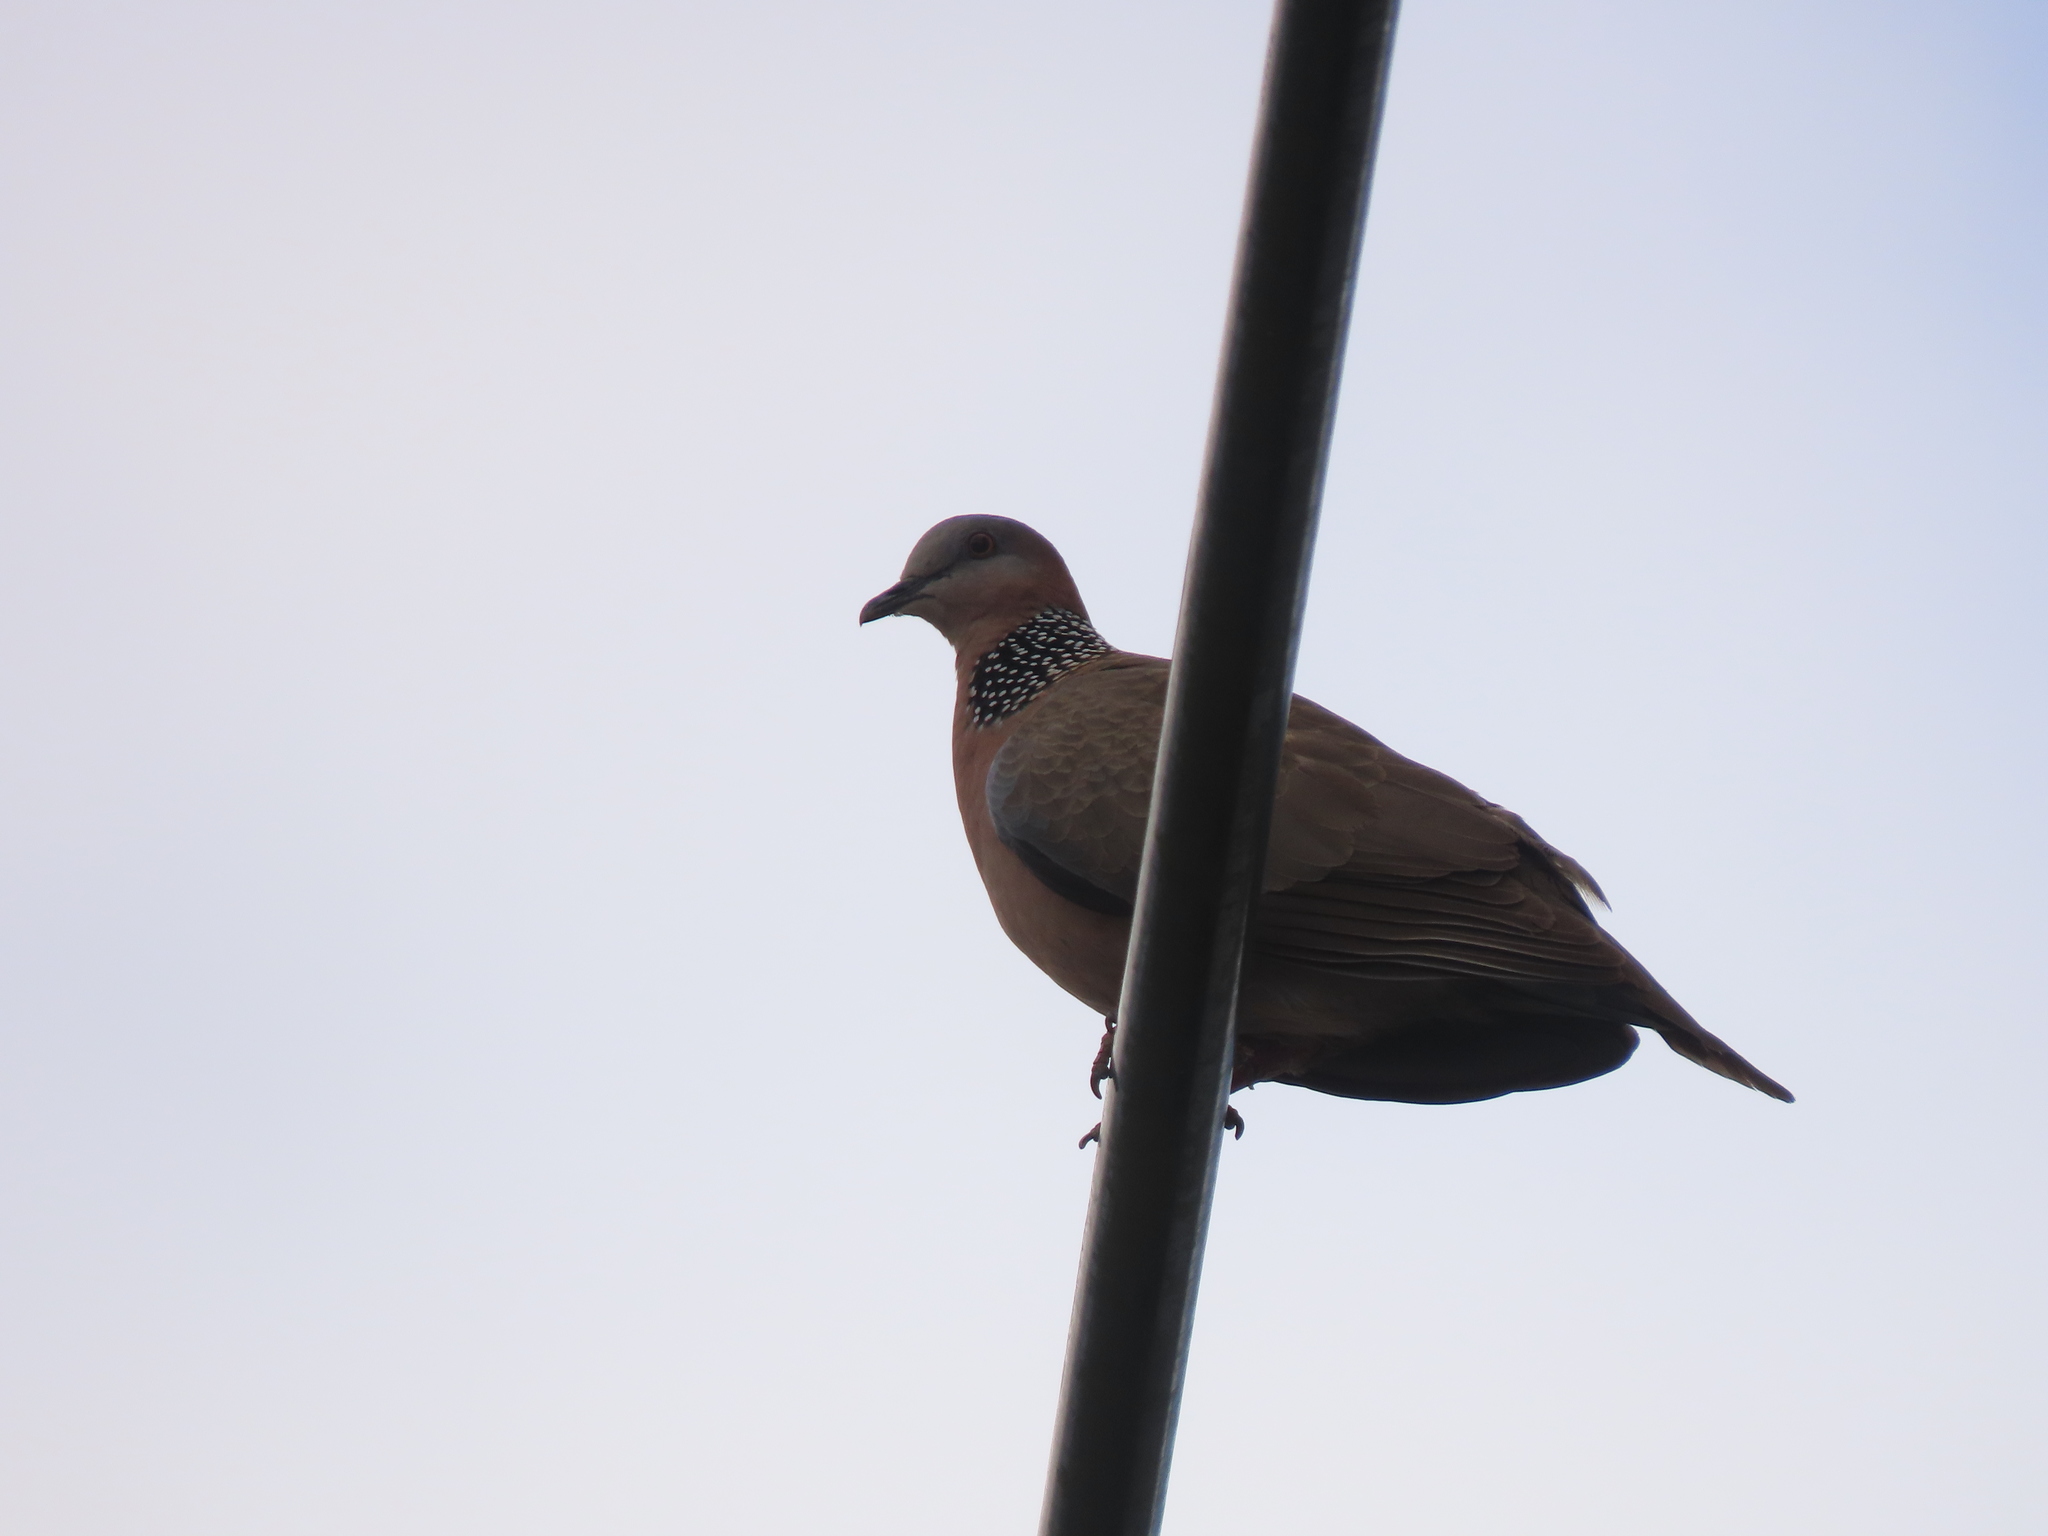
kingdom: Animalia
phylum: Chordata
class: Aves
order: Columbiformes
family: Columbidae
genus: Spilopelia
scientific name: Spilopelia chinensis
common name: Spotted dove
